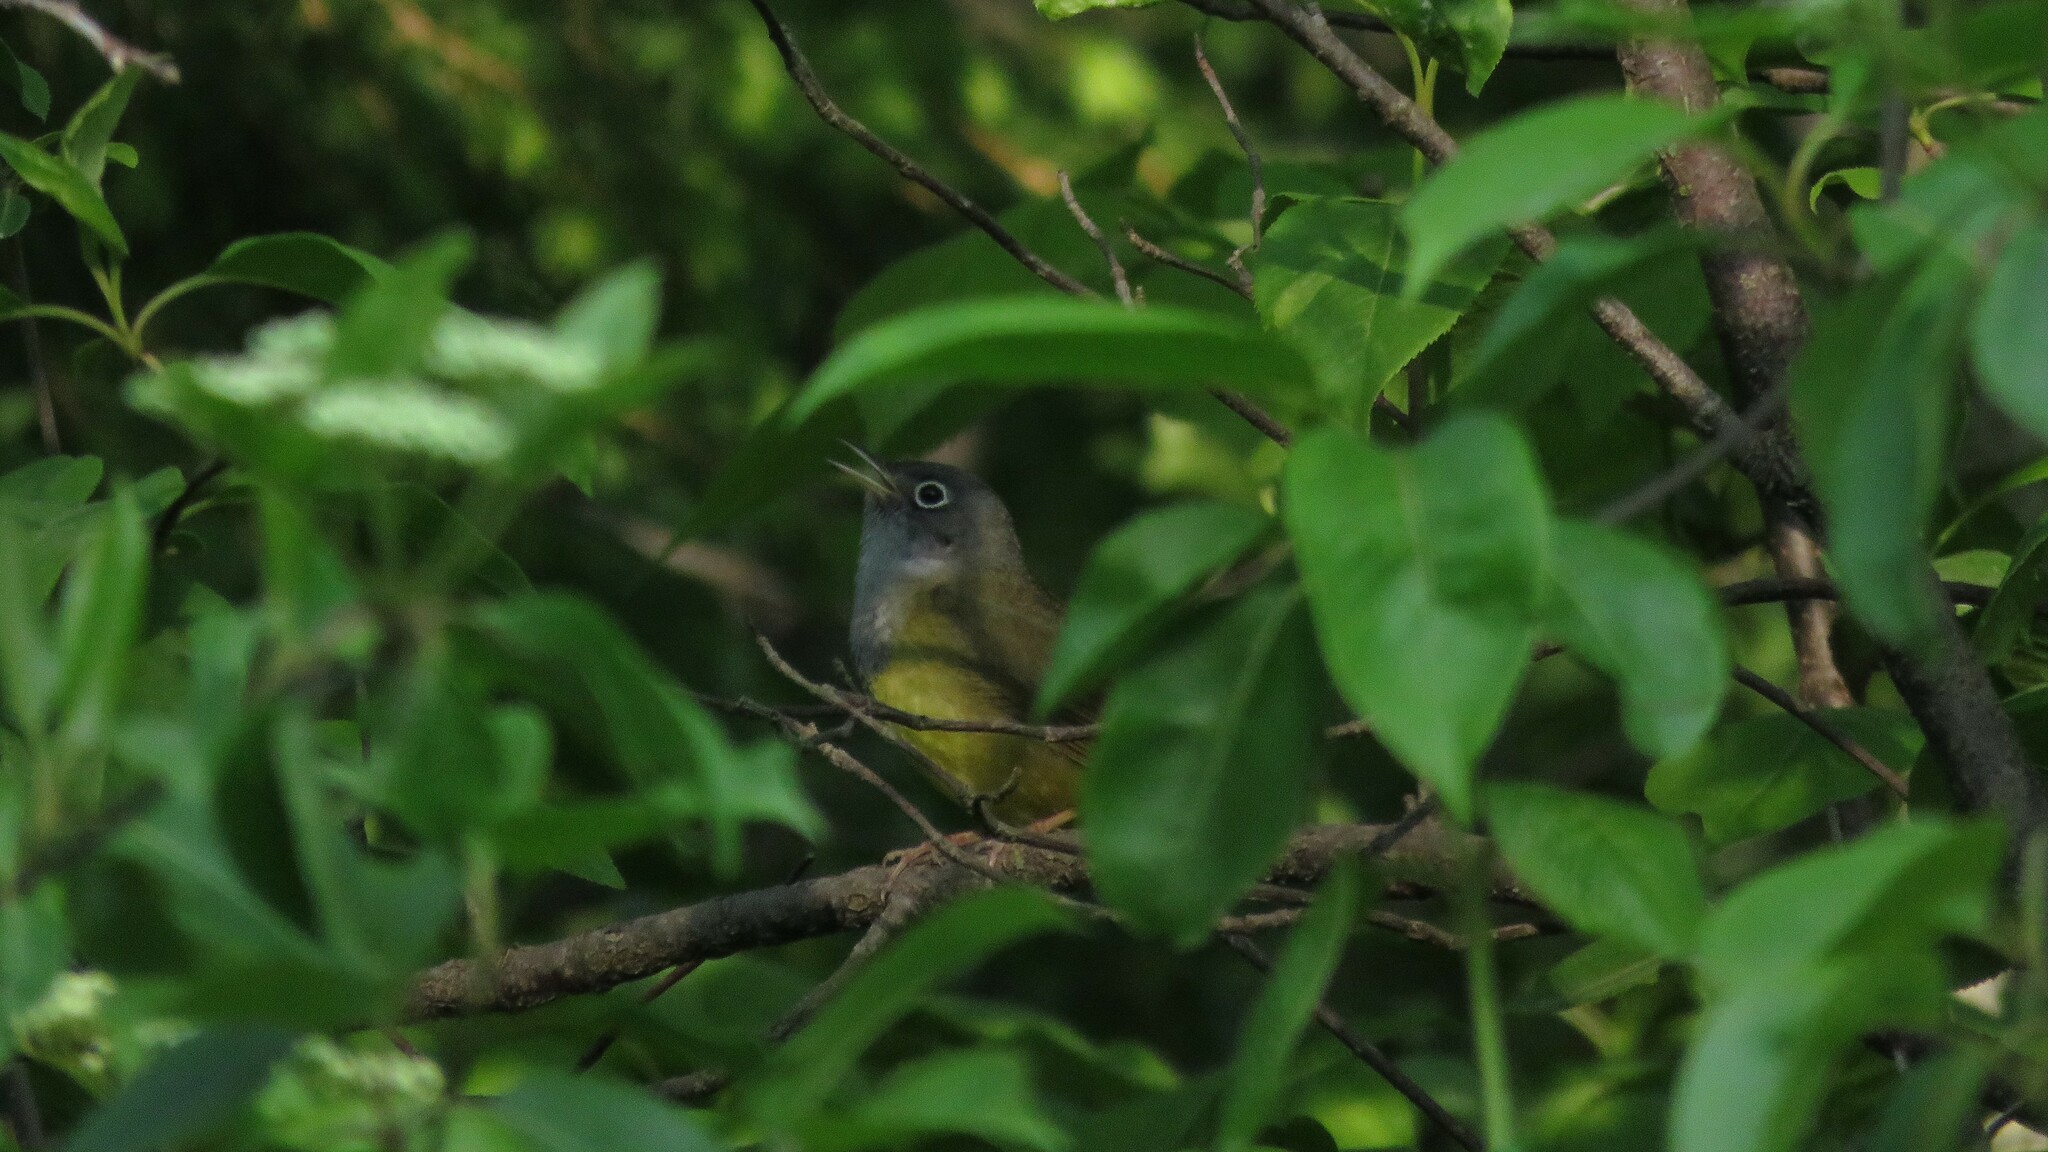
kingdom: Animalia
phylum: Chordata
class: Aves
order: Passeriformes
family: Parulidae
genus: Oporornis
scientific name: Oporornis agilis
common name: Connecticut warbler
